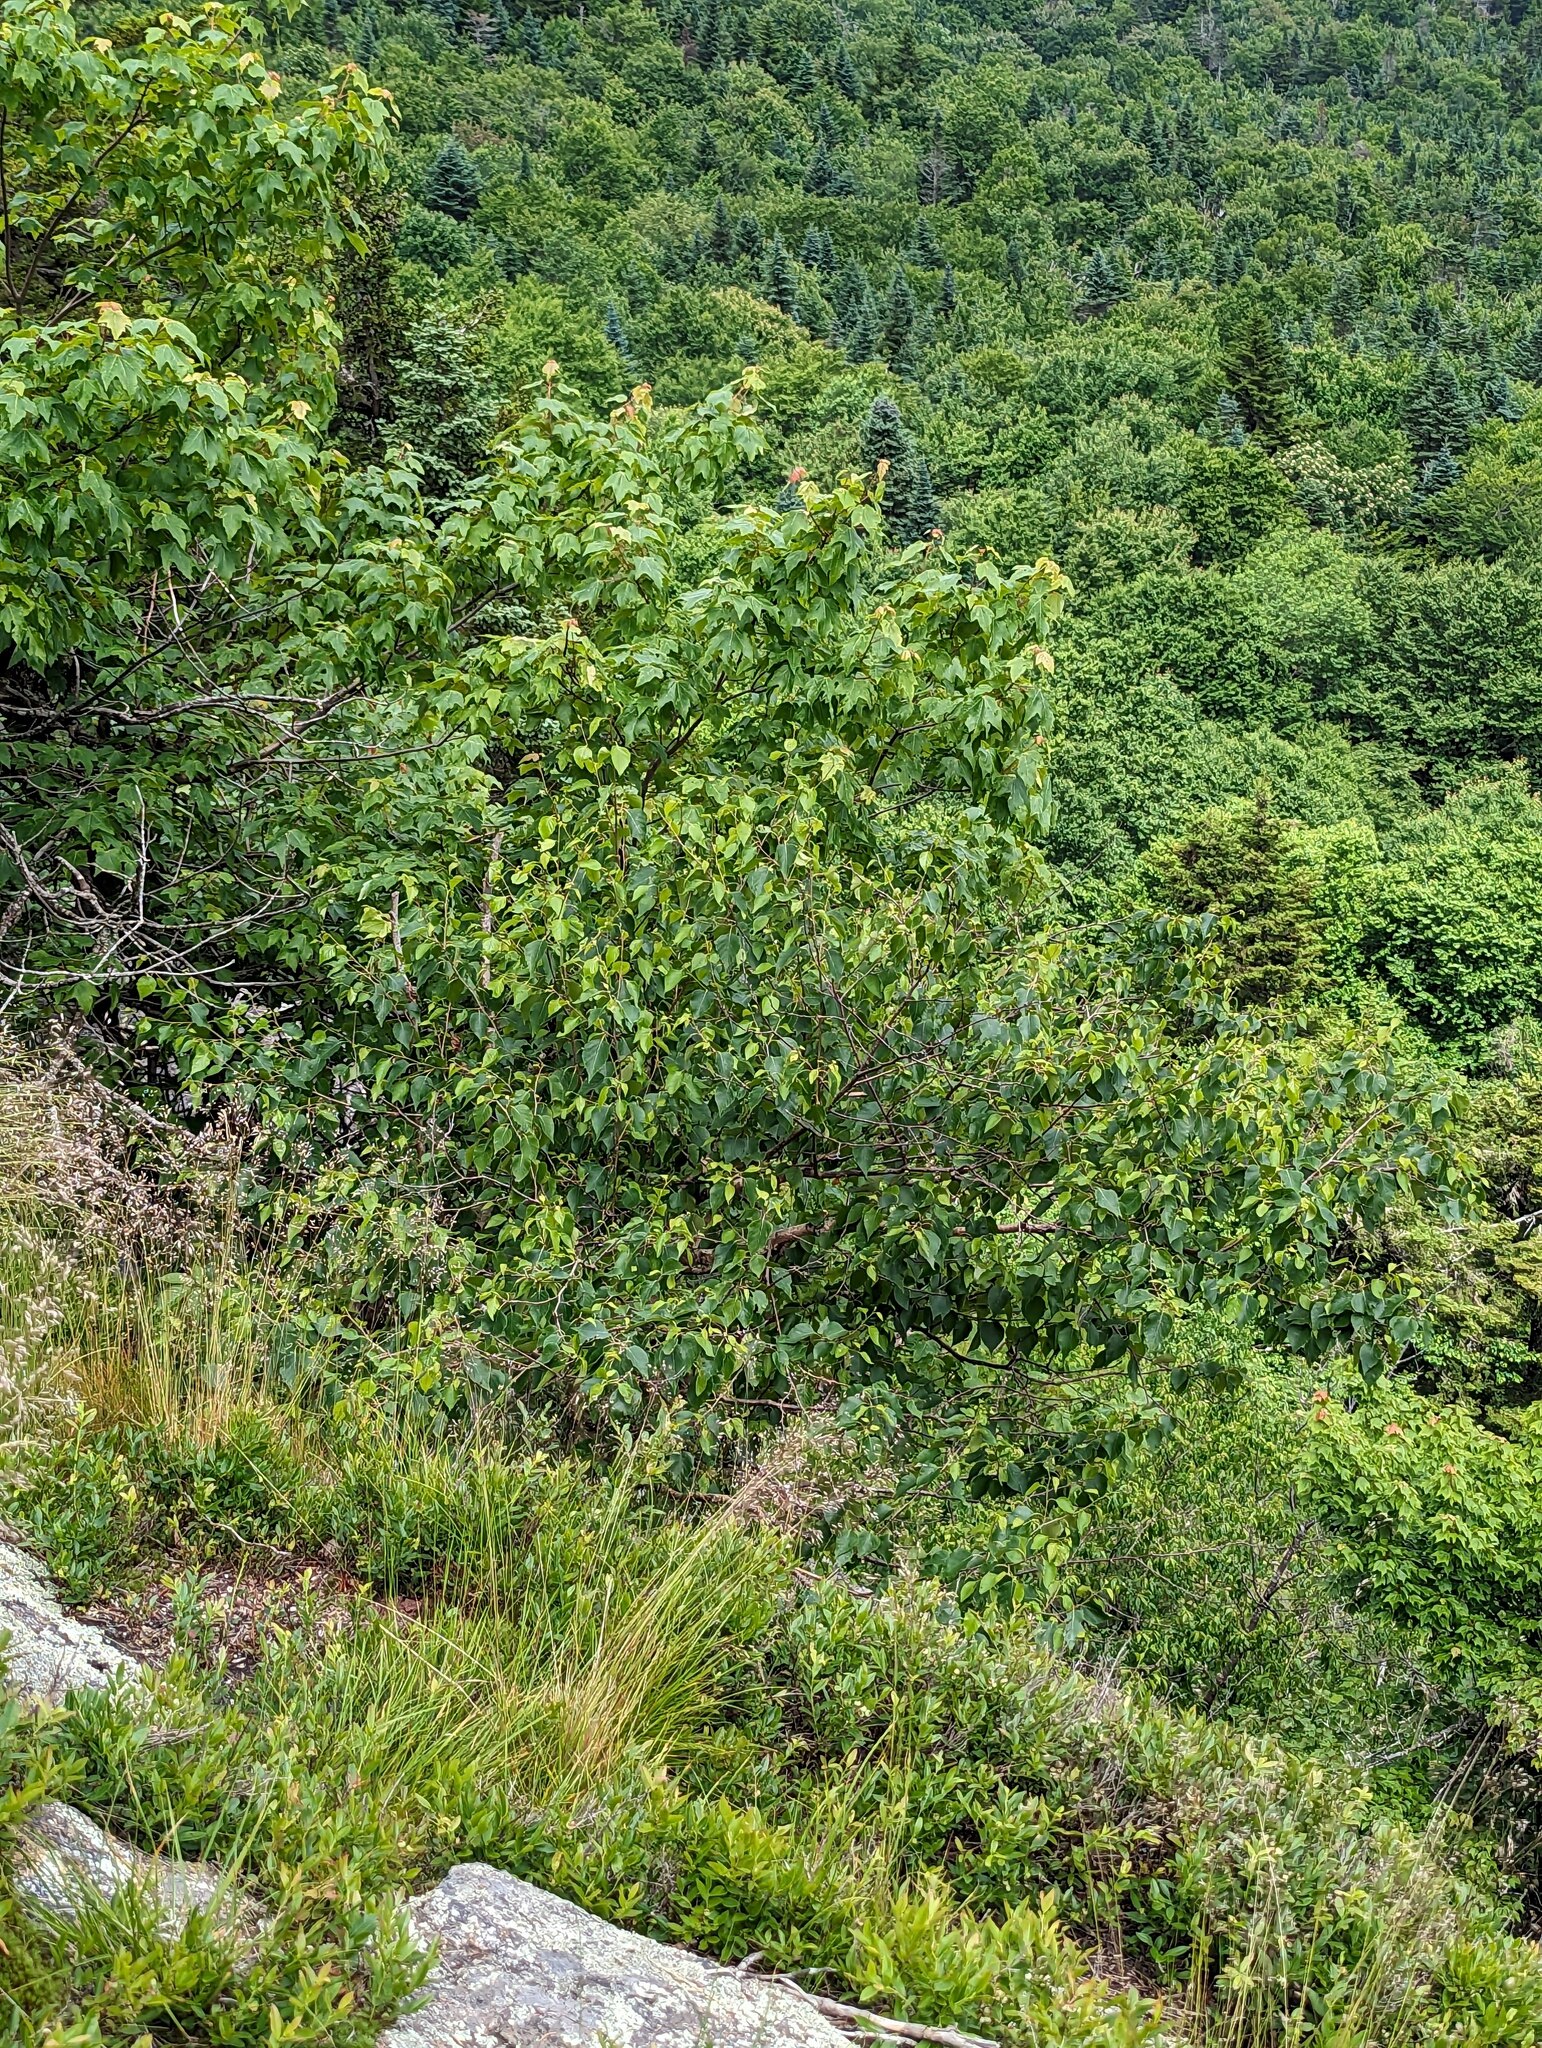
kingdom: Plantae
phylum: Tracheophyta
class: Magnoliopsida
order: Fagales
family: Betulaceae
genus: Betula
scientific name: Betula papyrifera
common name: Paper birch
